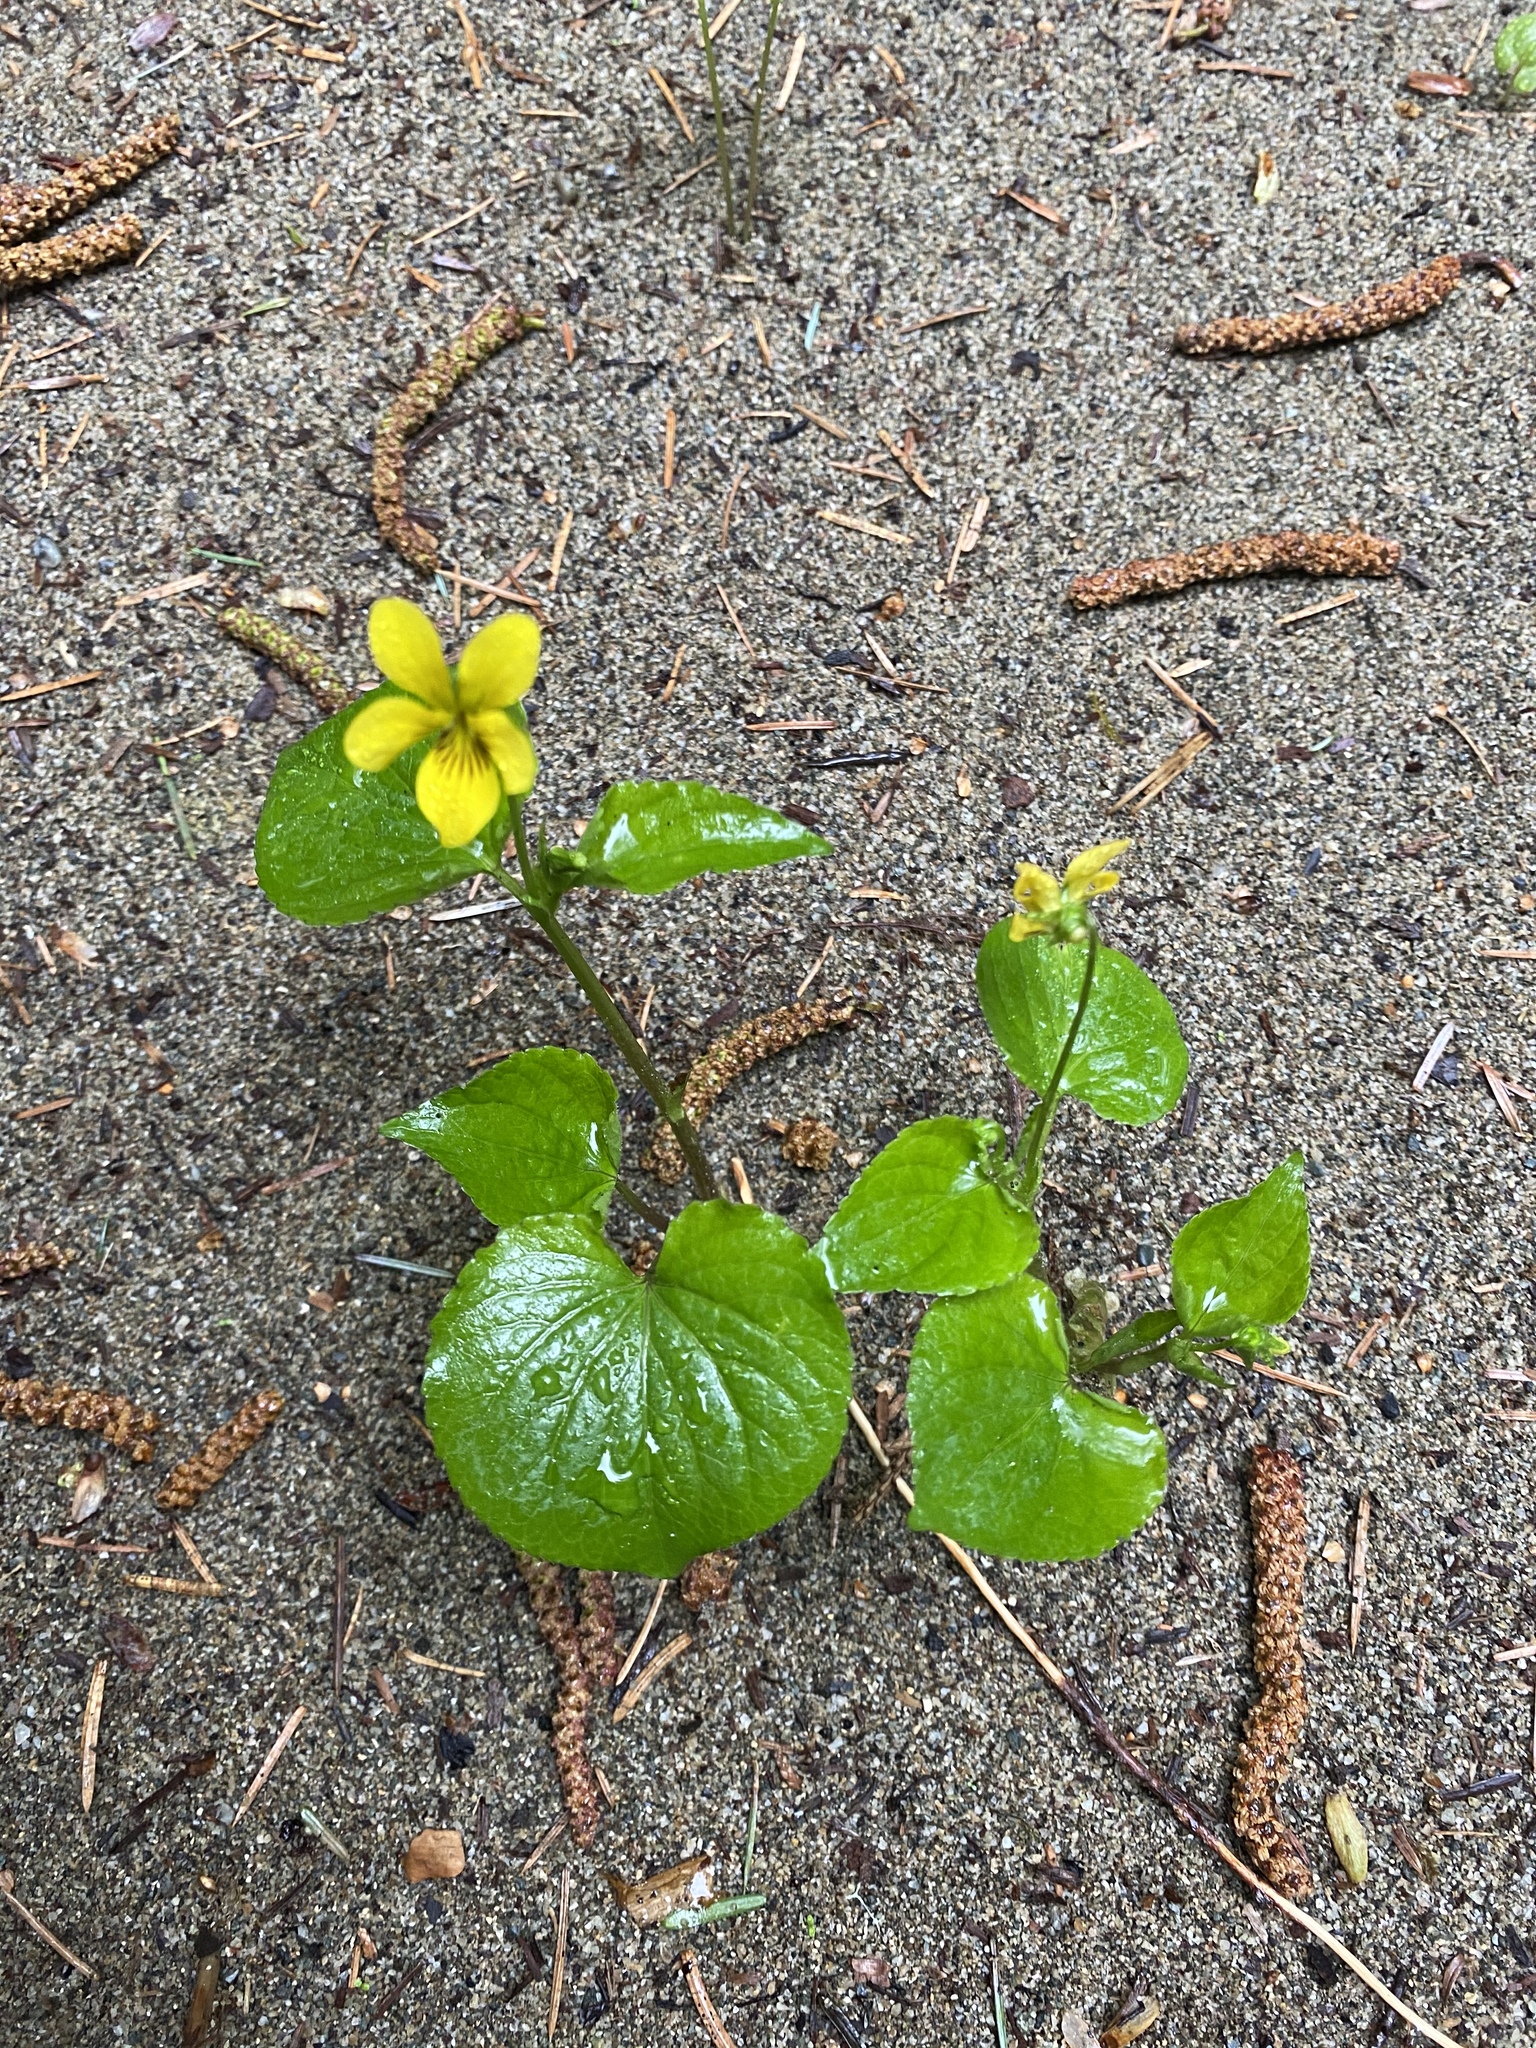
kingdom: Plantae
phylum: Tracheophyta
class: Magnoliopsida
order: Malpighiales
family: Violaceae
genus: Viola
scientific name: Viola glabella
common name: Stream violet
